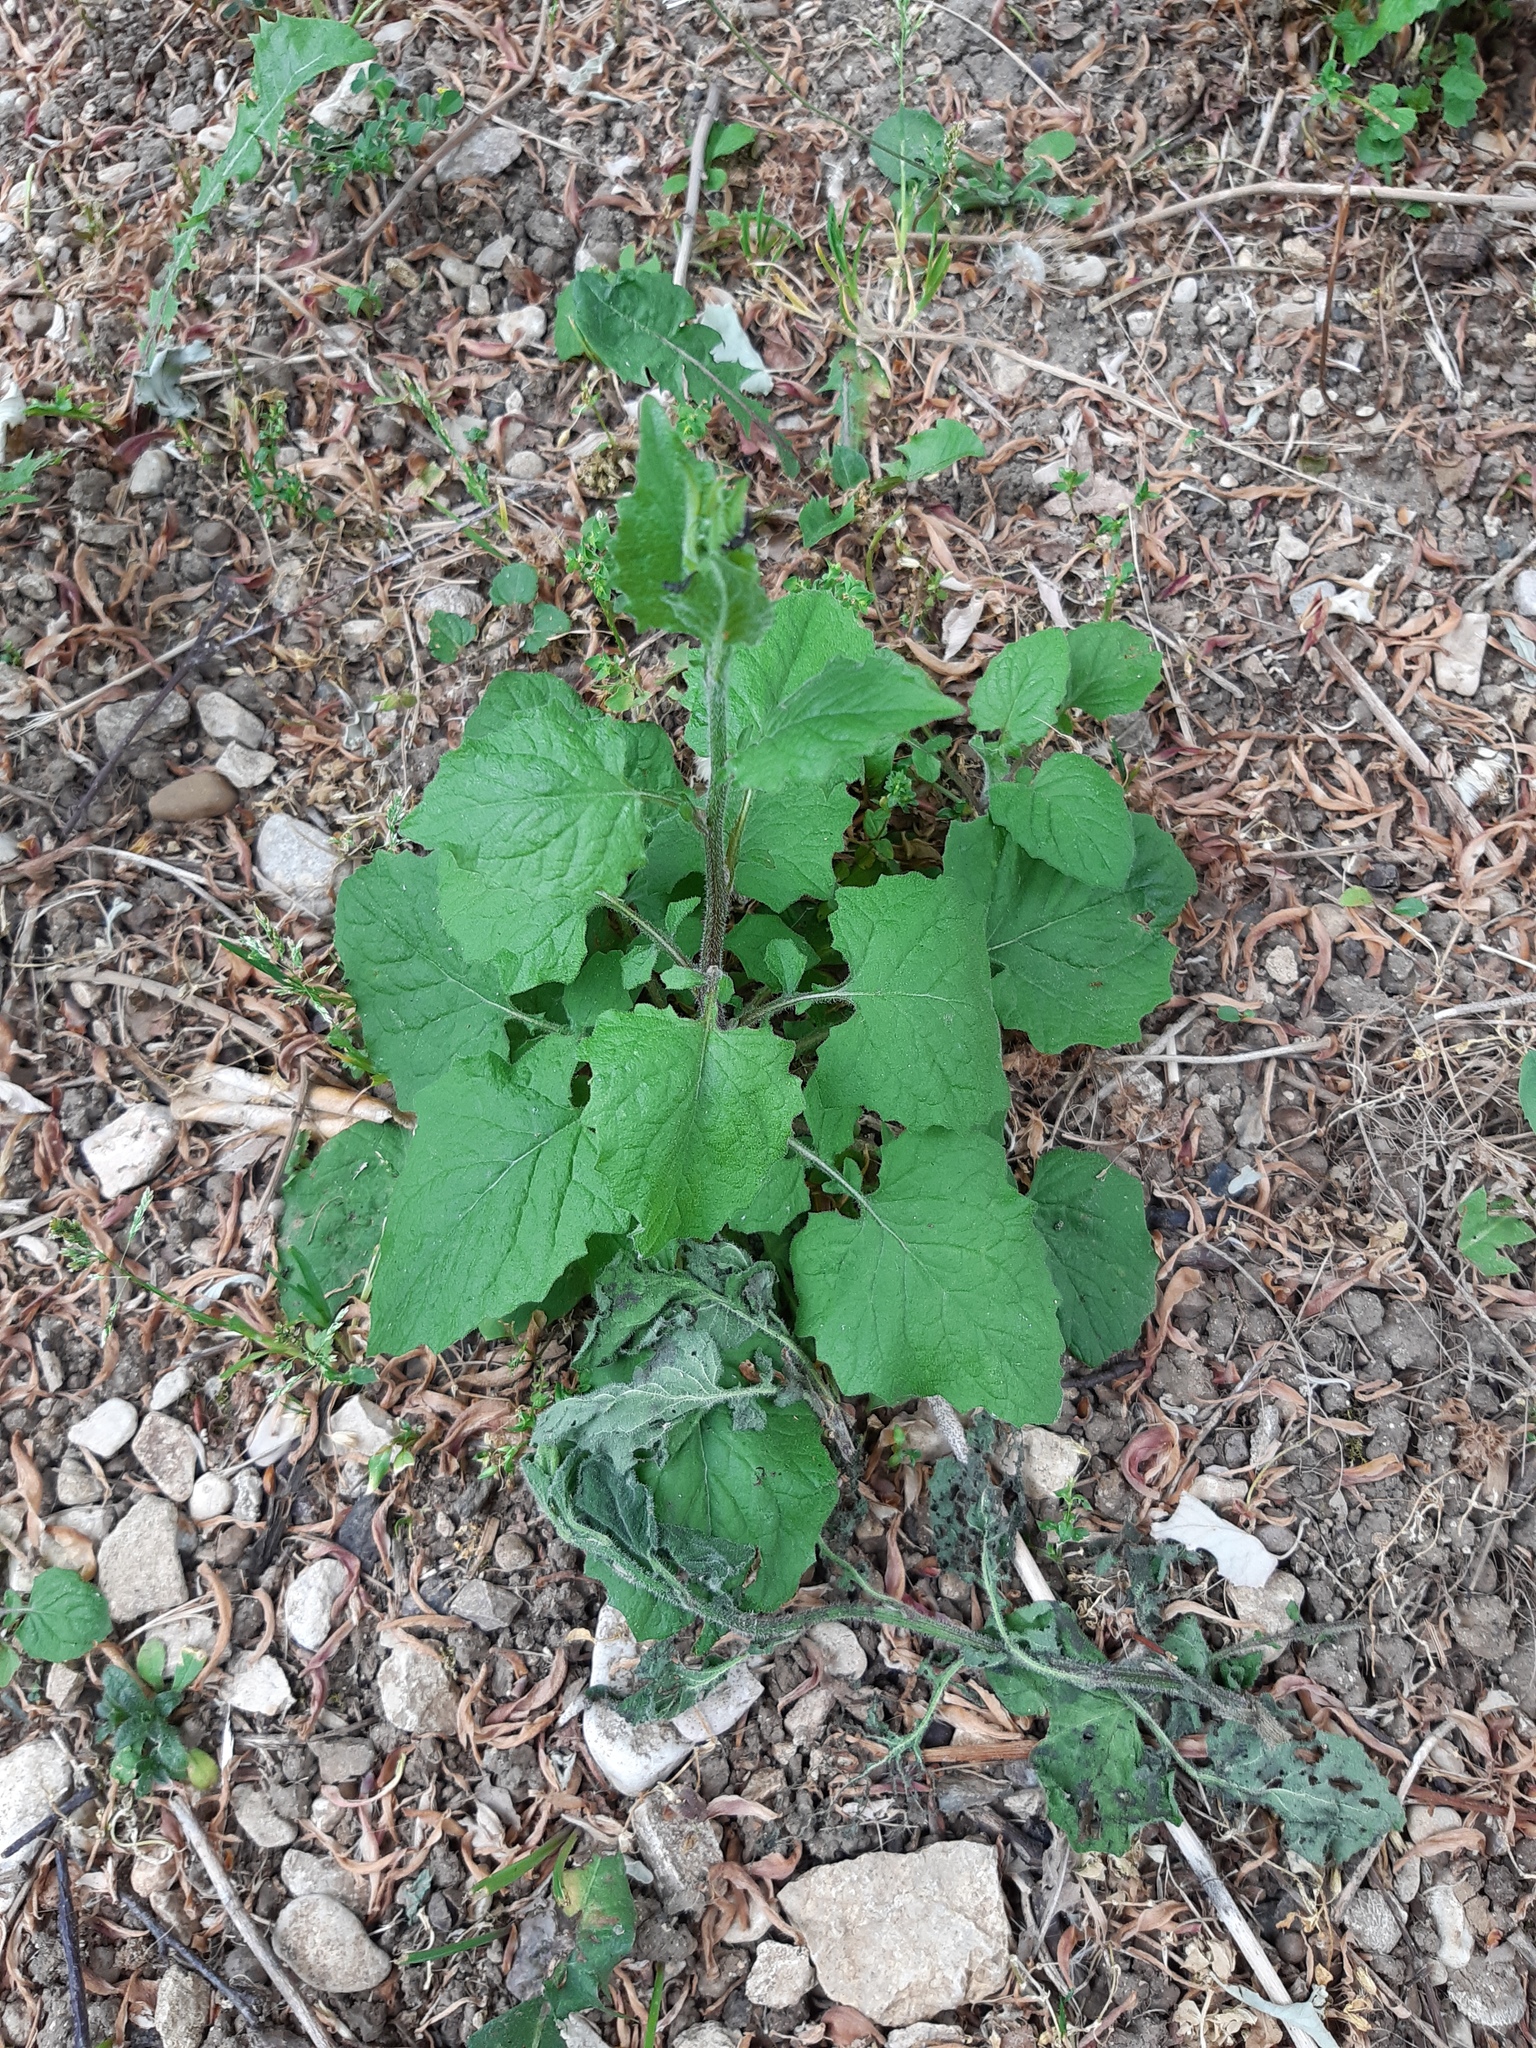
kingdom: Plantae
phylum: Tracheophyta
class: Magnoliopsida
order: Asterales
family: Asteraceae
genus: Lapsana
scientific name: Lapsana communis
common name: Nipplewort
